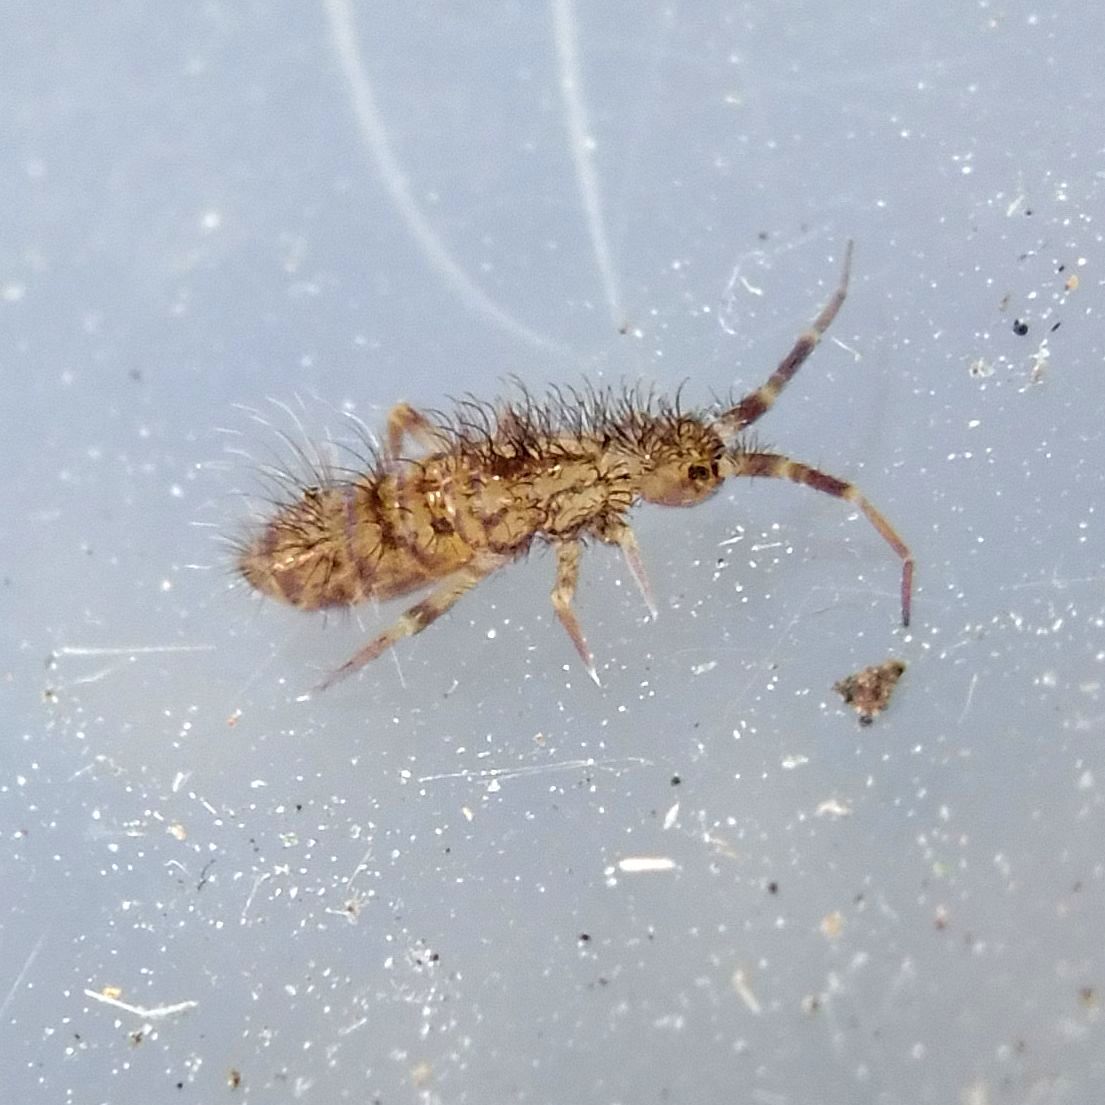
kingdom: Animalia
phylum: Arthropoda
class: Collembola
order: Entomobryomorpha
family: Orchesellidae
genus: Orchesella
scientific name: Orchesella villosa
